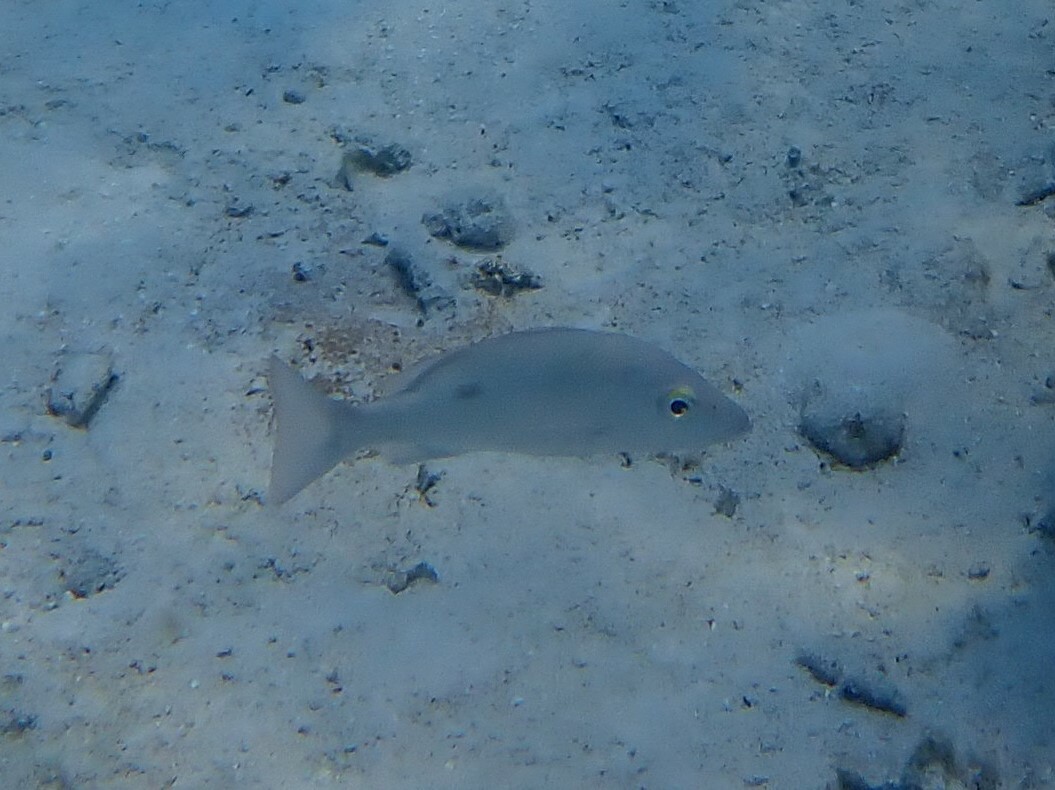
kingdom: Animalia
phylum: Chordata
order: Perciformes
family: Lutjanidae
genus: Lutjanus
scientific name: Lutjanus mahogoni
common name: Spot snapper
